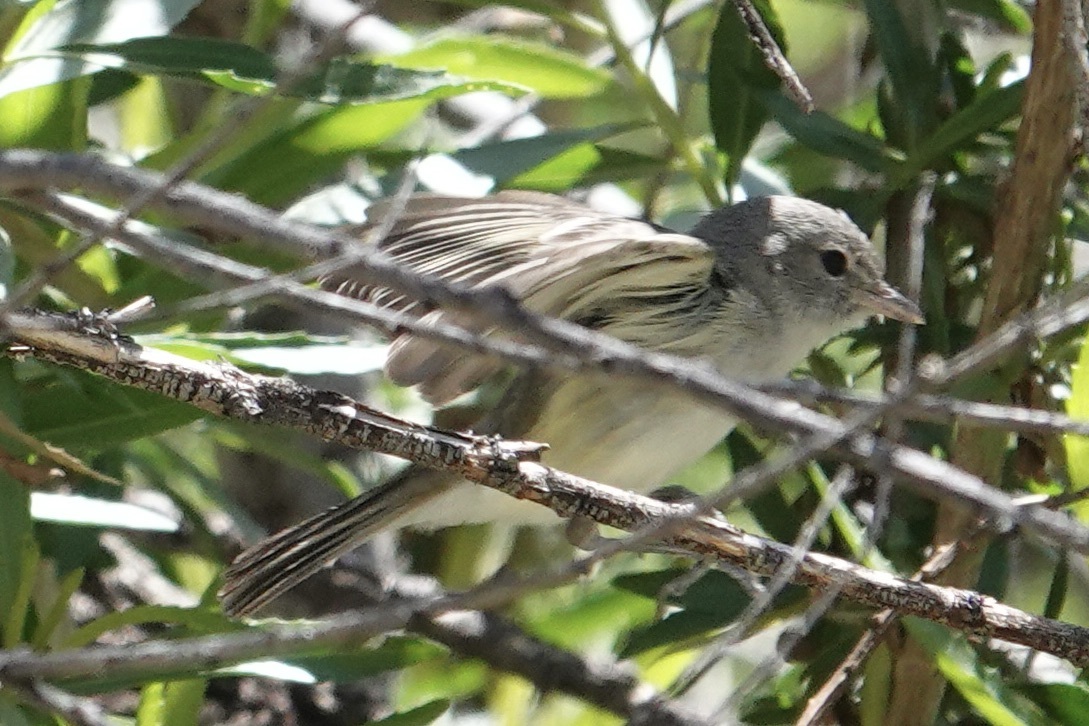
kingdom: Animalia
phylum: Chordata
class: Aves
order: Passeriformes
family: Vireonidae
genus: Vireo
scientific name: Vireo bellii
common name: Bell's vireo
